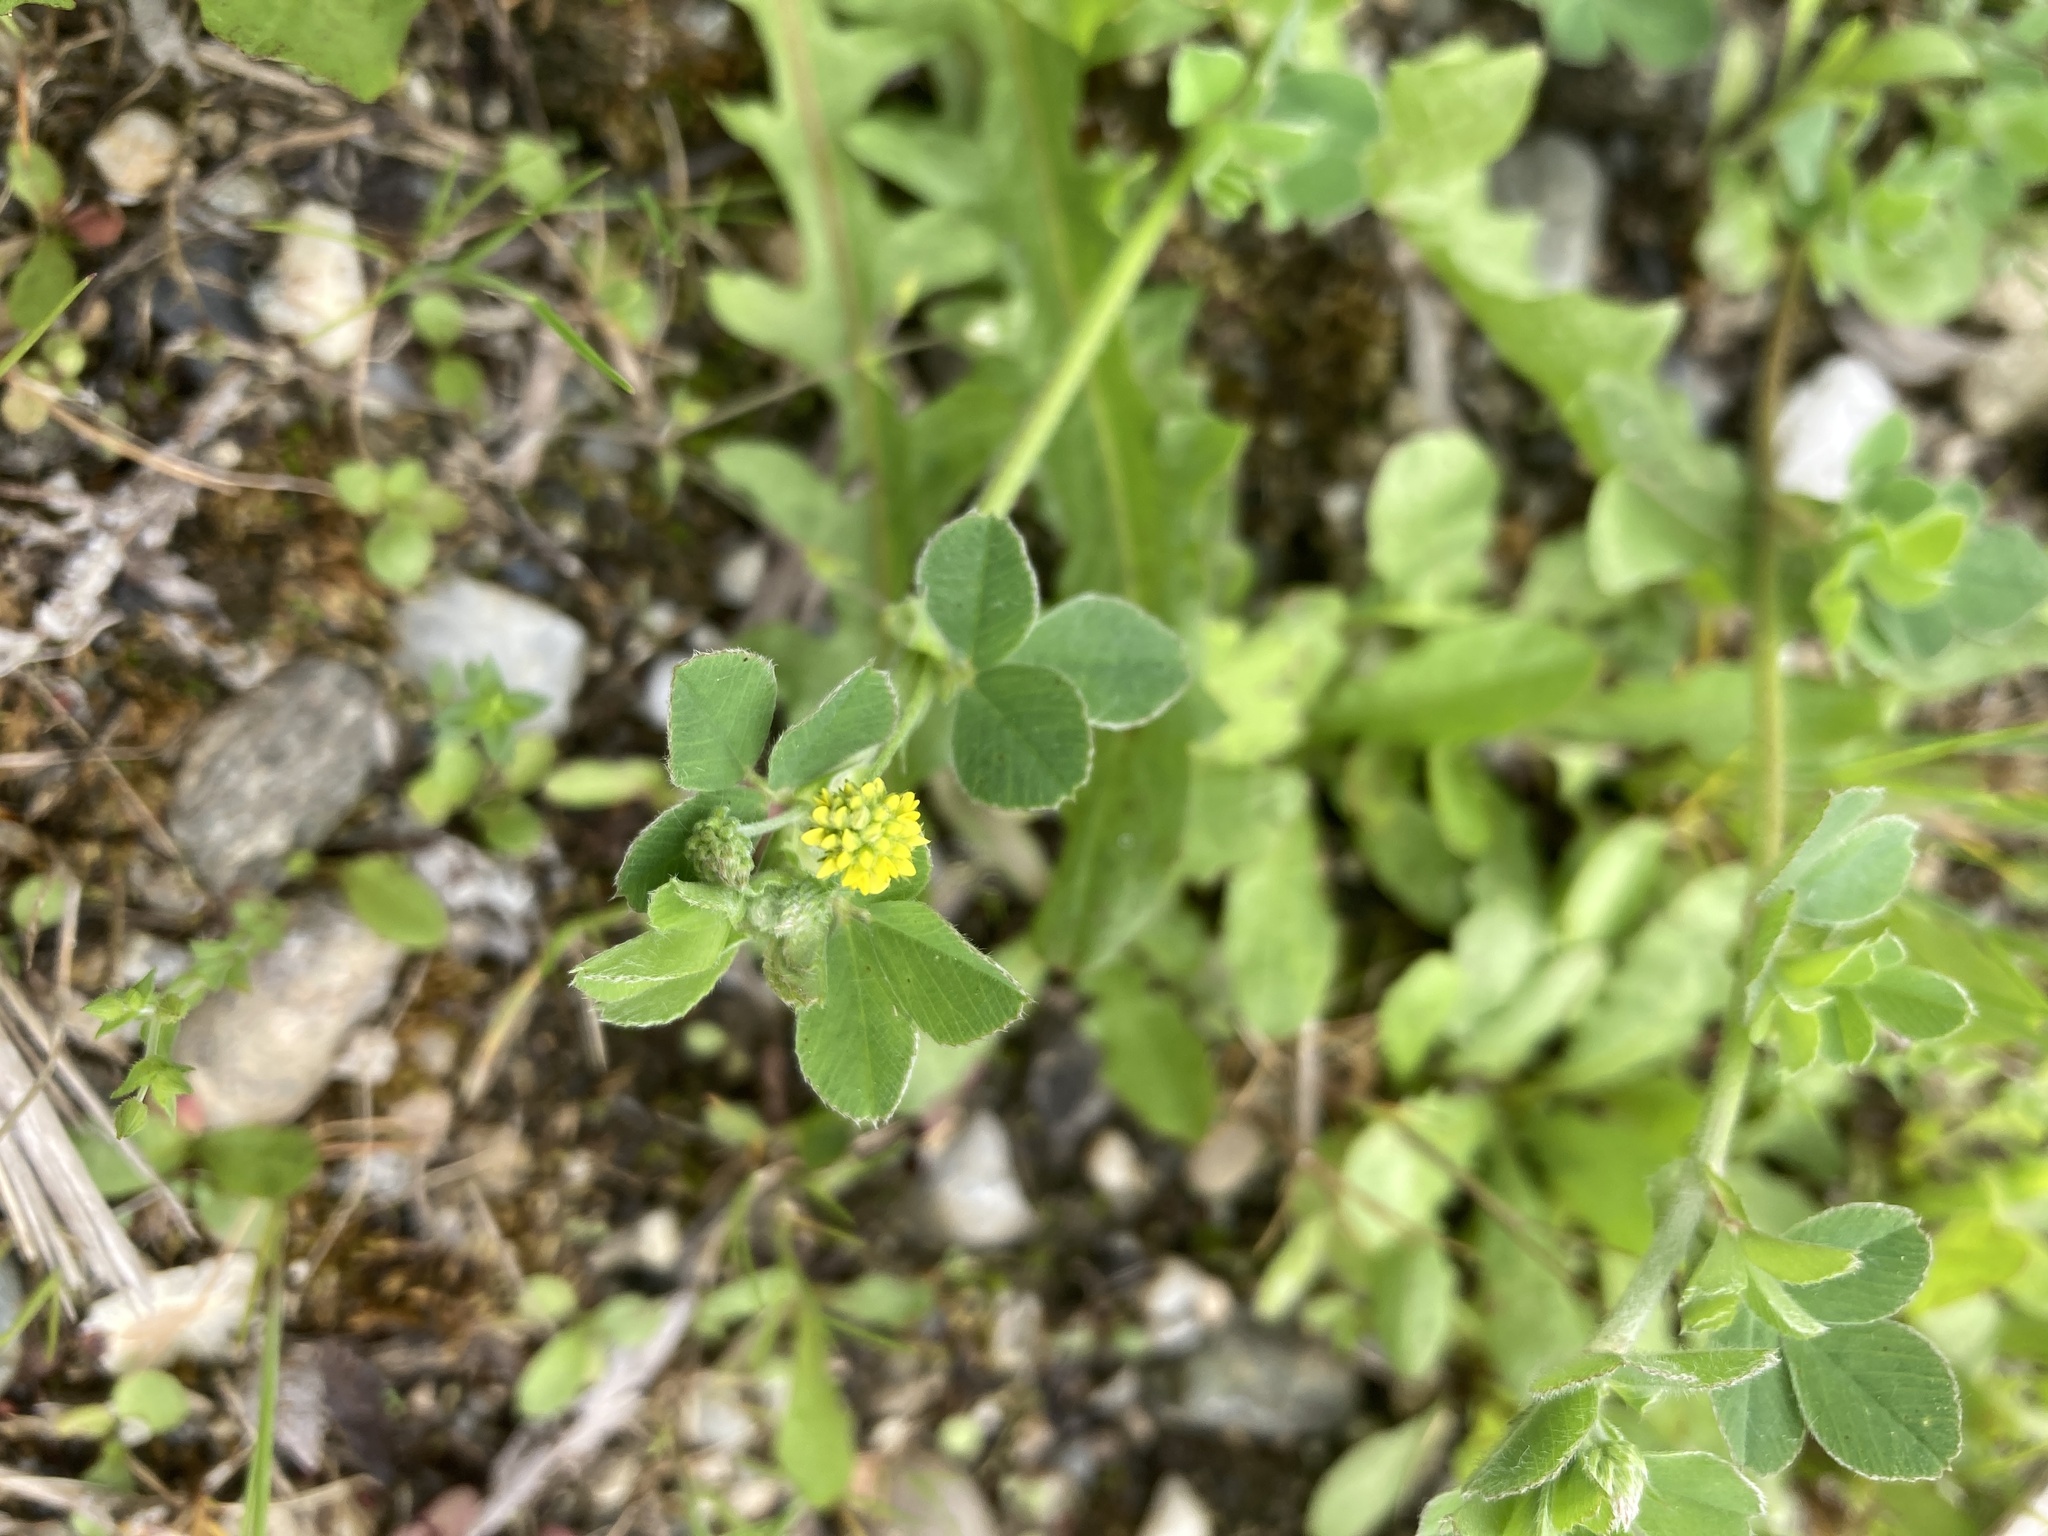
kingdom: Plantae
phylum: Tracheophyta
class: Magnoliopsida
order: Fabales
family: Fabaceae
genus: Medicago
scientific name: Medicago lupulina
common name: Black medick
